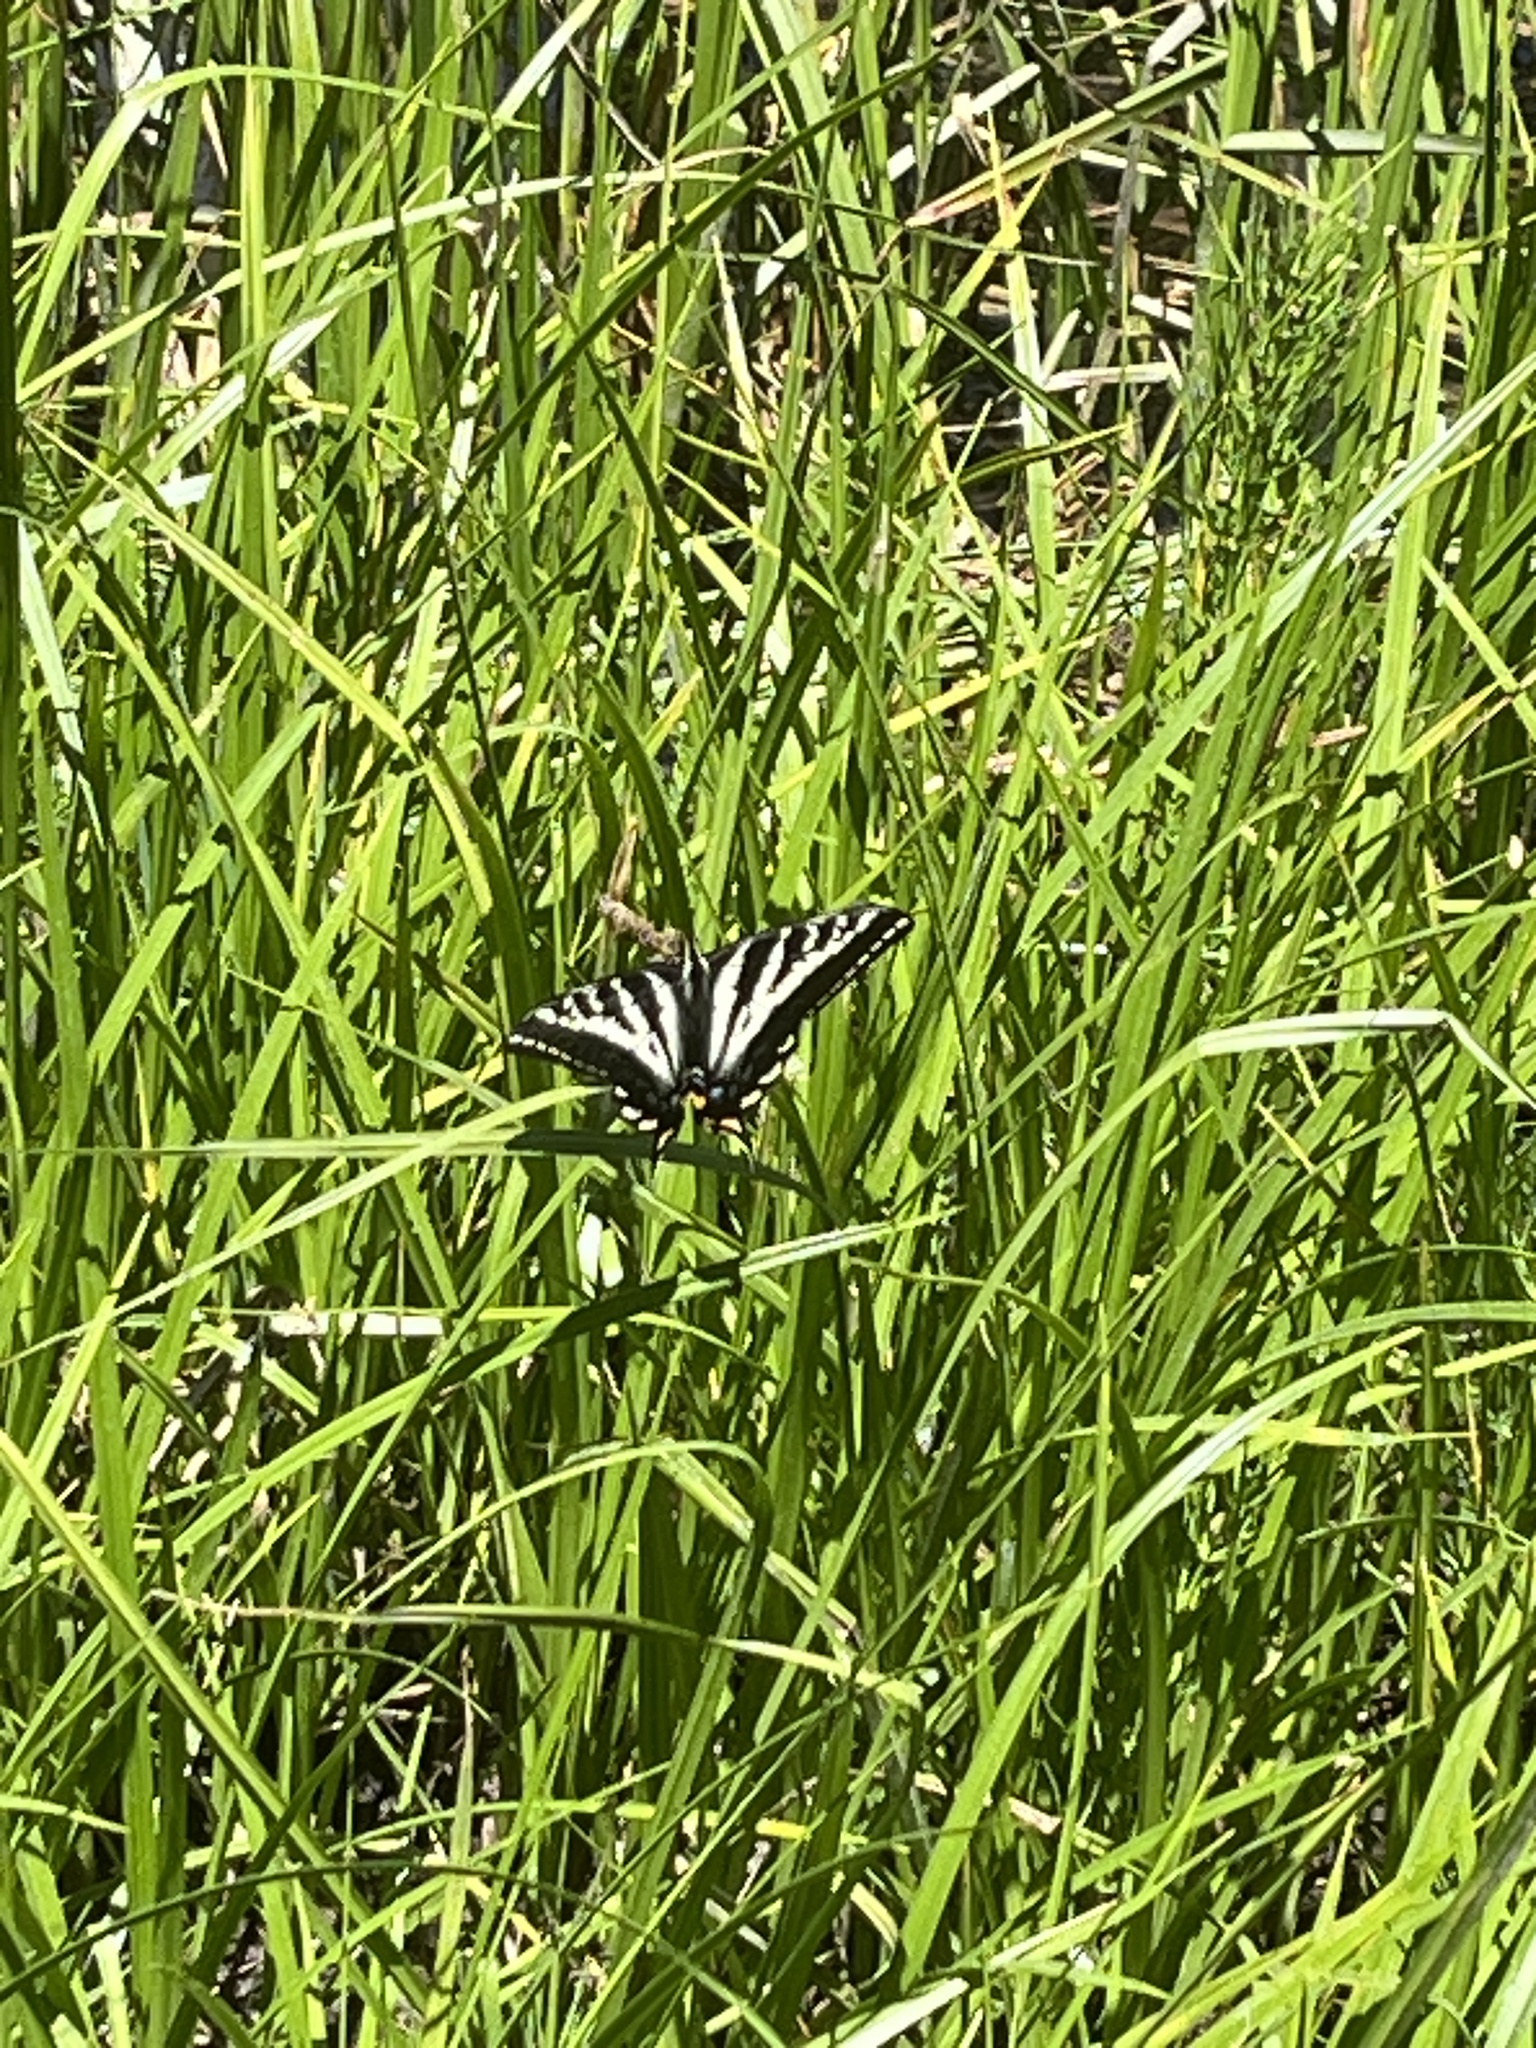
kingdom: Animalia
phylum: Arthropoda
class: Insecta
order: Lepidoptera
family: Papilionidae
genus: Papilio
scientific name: Papilio eurymedon
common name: Pale tiger swallowtail
